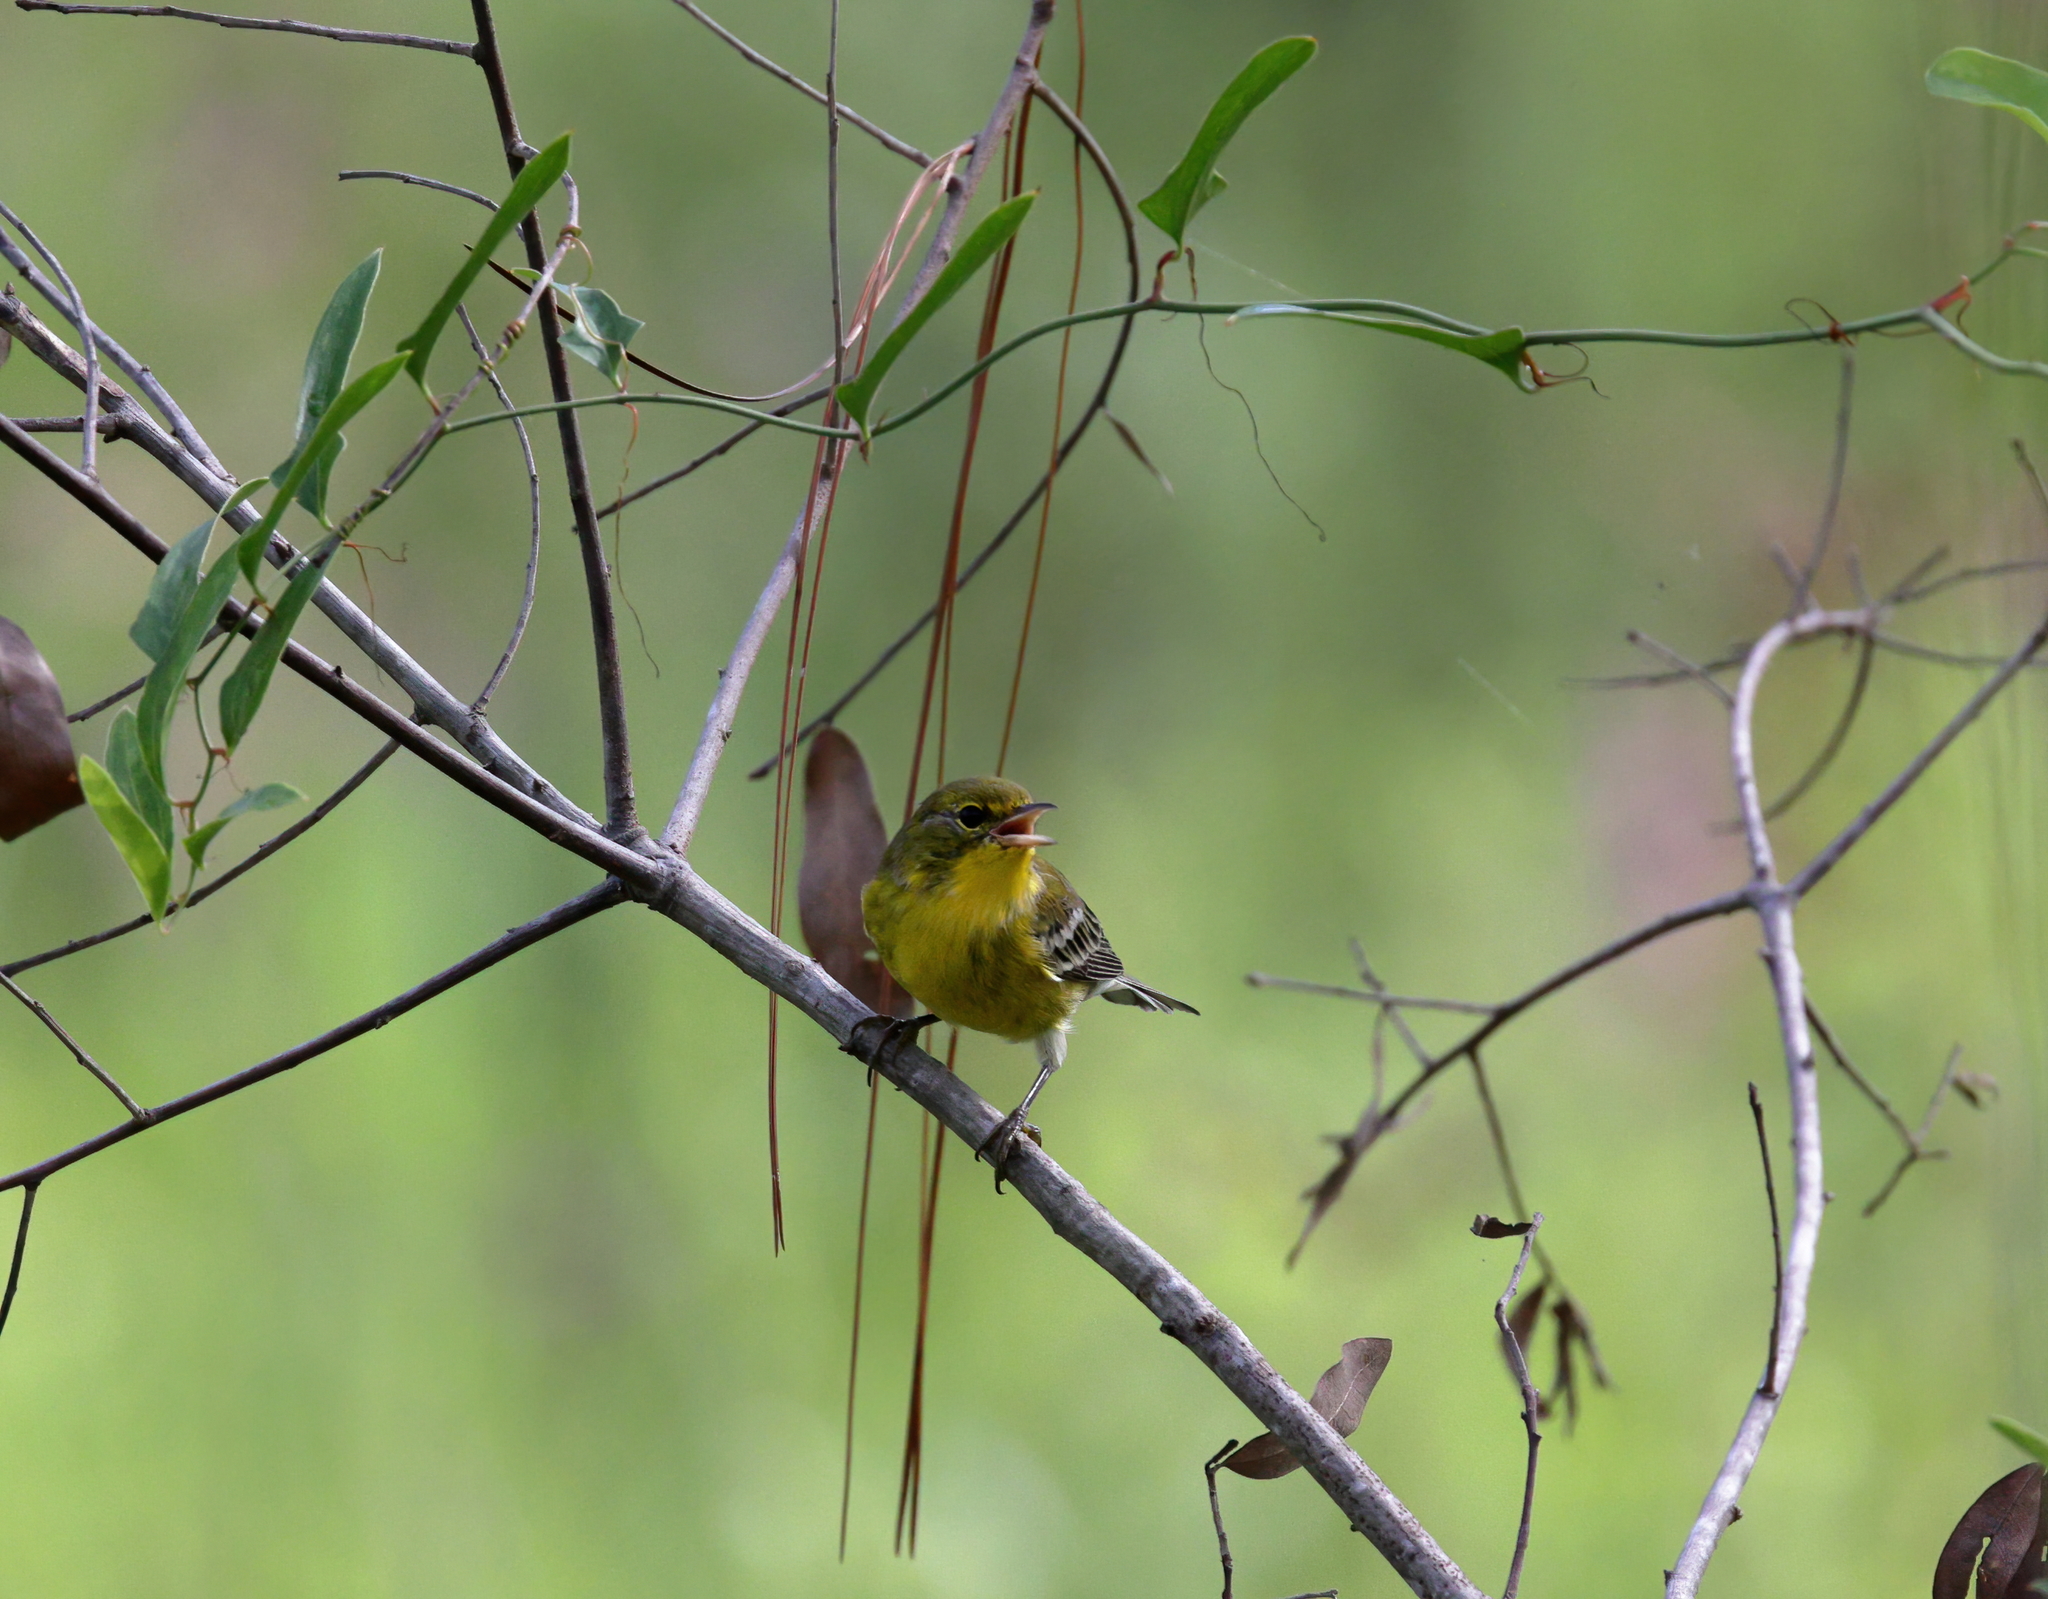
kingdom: Animalia
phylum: Chordata
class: Aves
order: Passeriformes
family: Parulidae
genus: Setophaga
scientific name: Setophaga pinus
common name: Pine warbler
